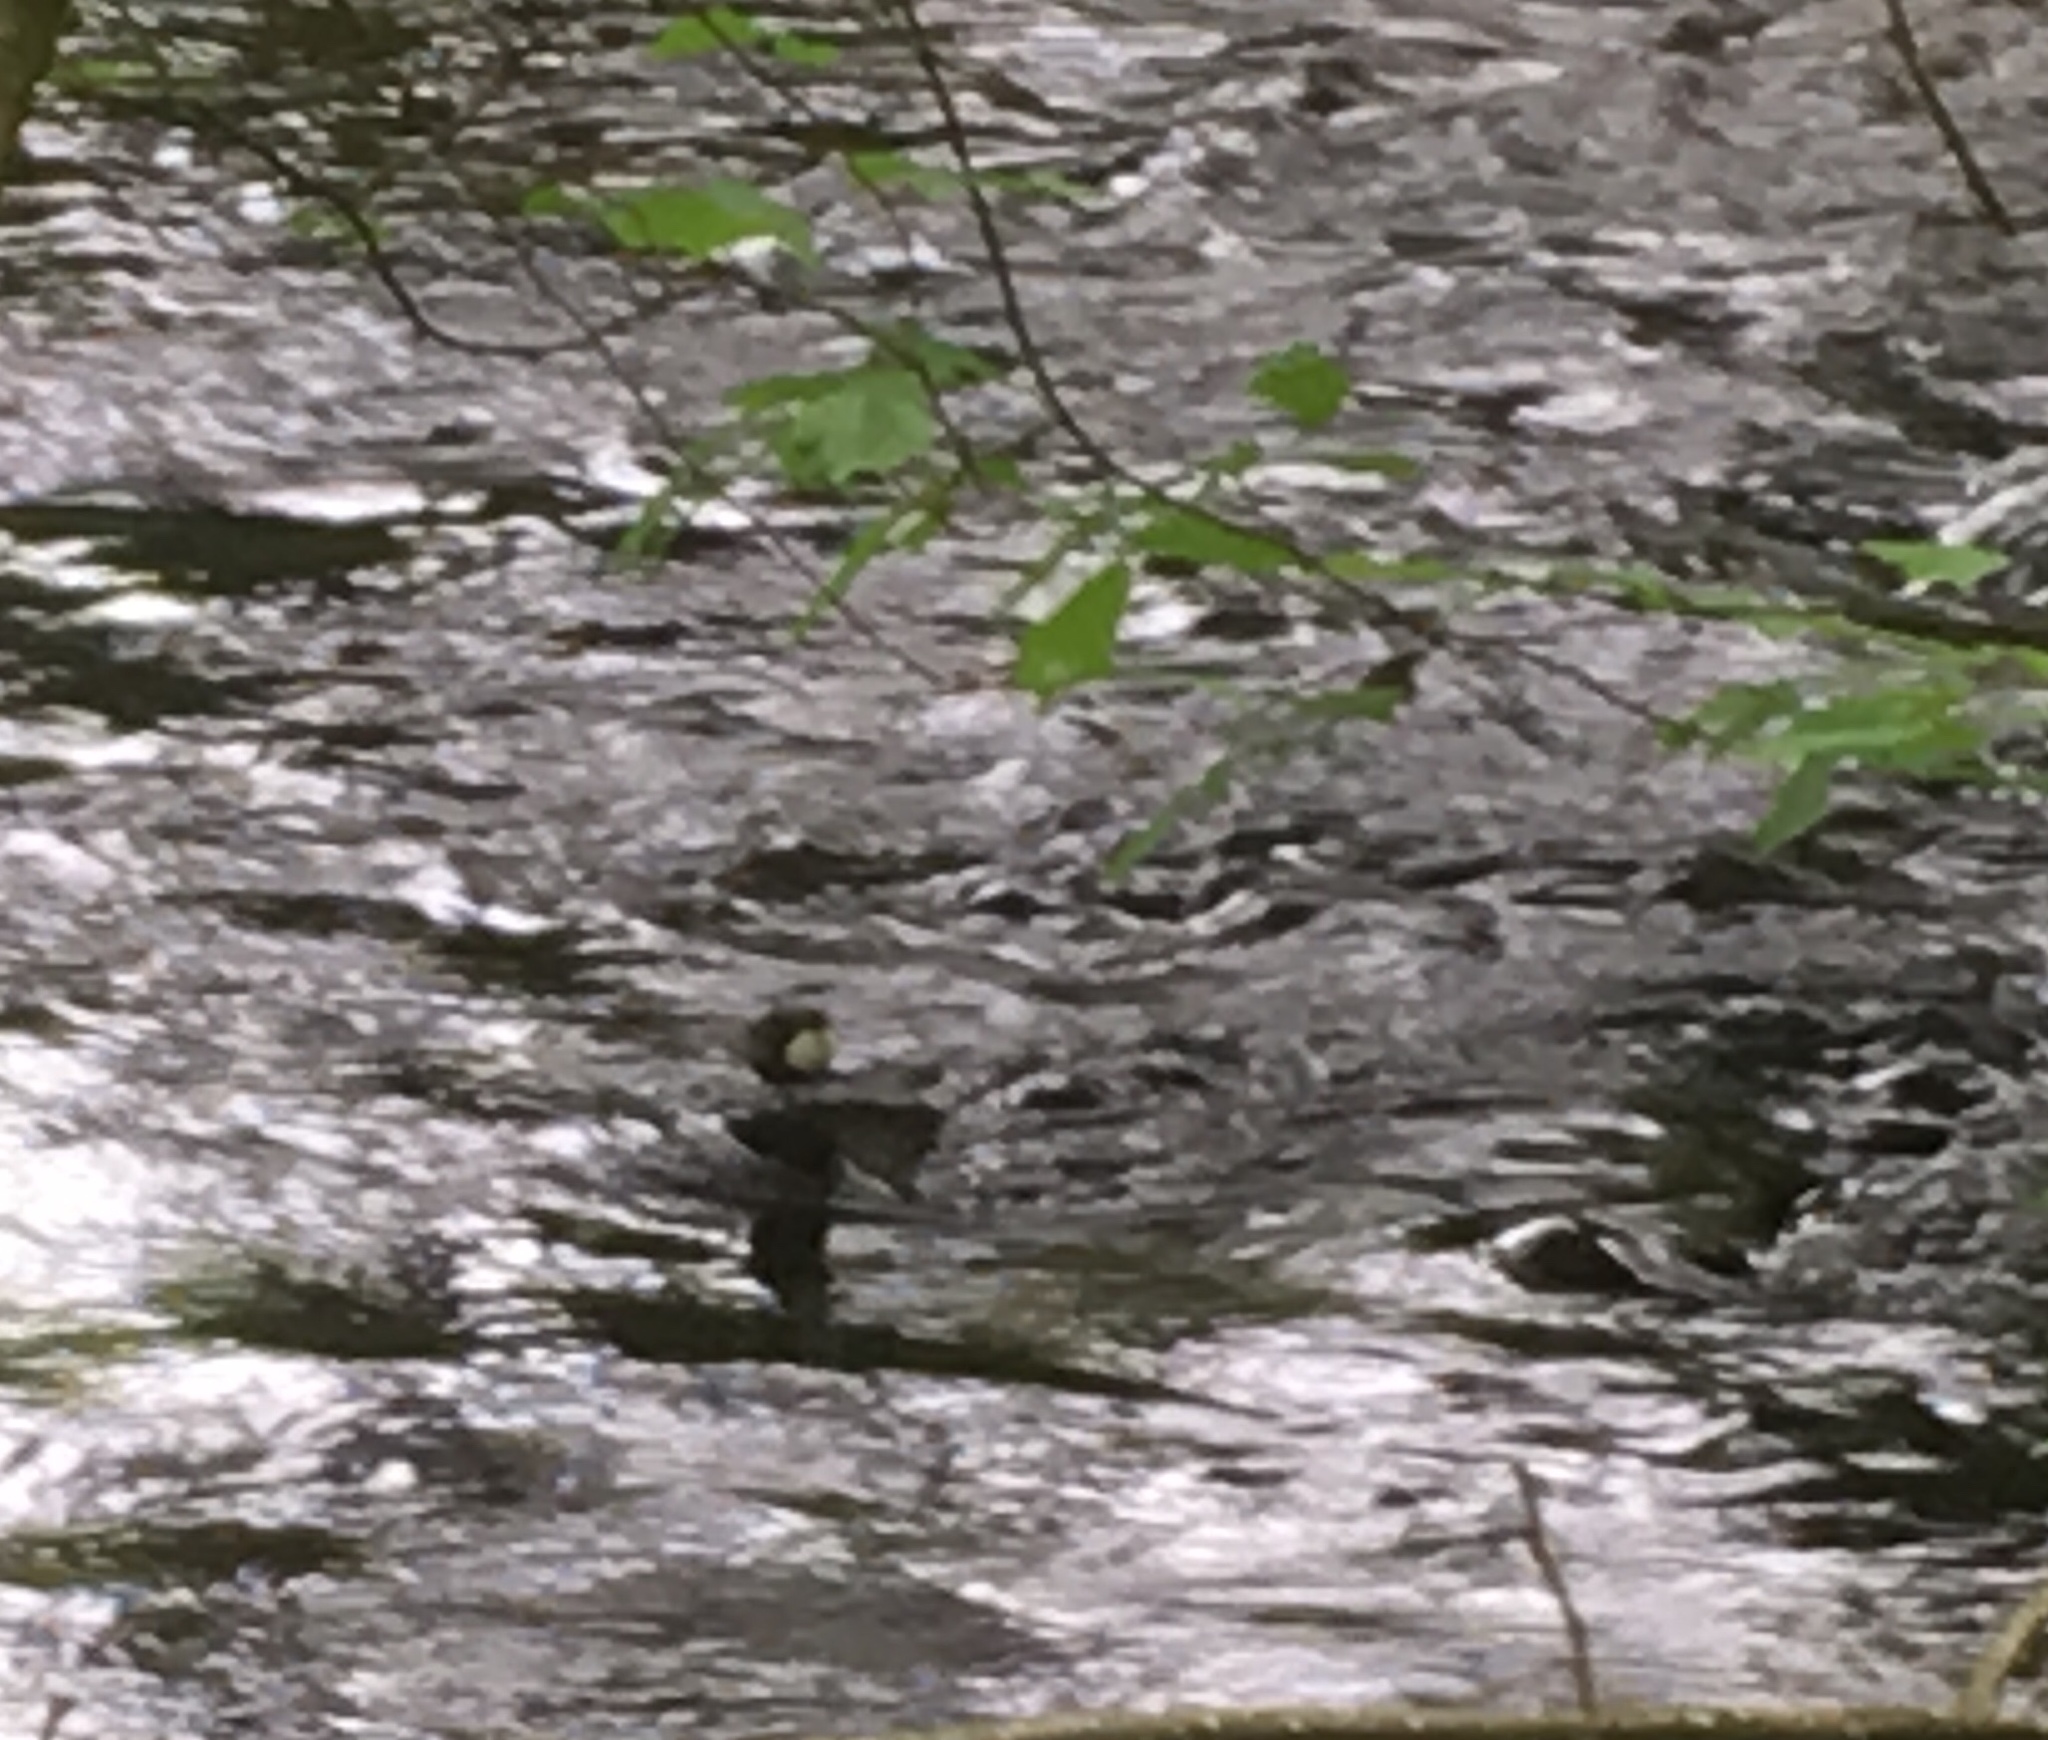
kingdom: Animalia
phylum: Chordata
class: Aves
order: Passeriformes
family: Cinclidae
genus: Cinclus
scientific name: Cinclus cinclus
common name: White-throated dipper
